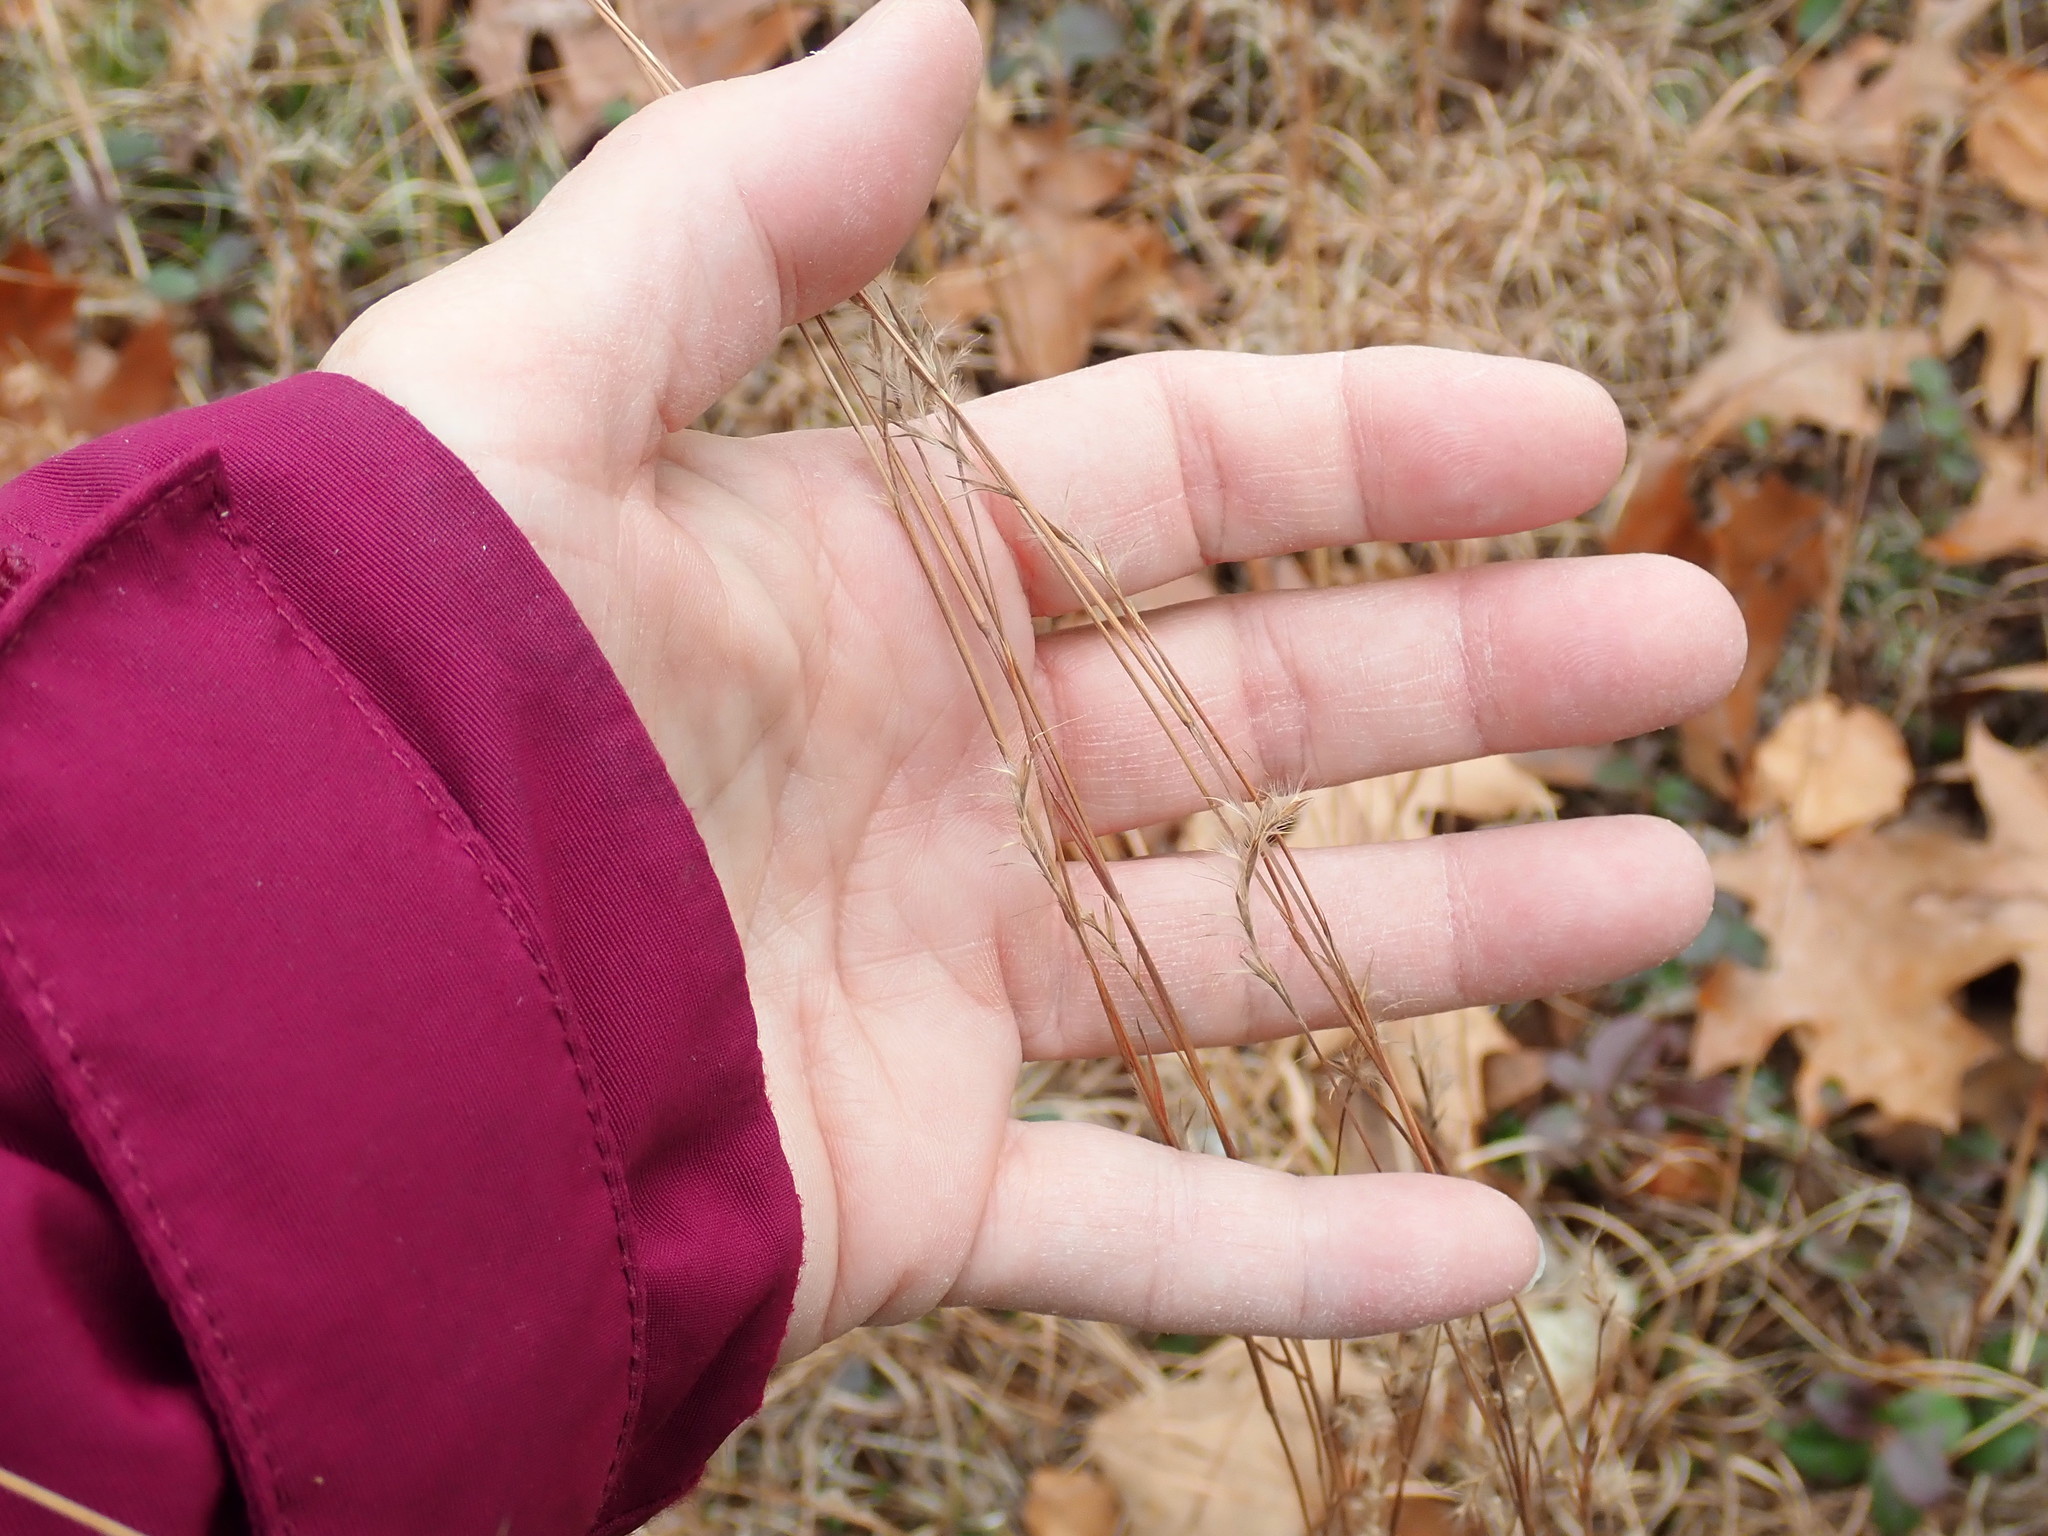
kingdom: Plantae
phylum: Tracheophyta
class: Liliopsida
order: Poales
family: Poaceae
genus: Schizachyrium
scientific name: Schizachyrium scoparium
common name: Little bluestem
